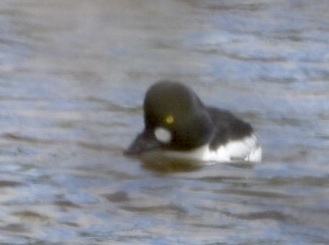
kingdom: Animalia
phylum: Chordata
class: Aves
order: Anseriformes
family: Anatidae
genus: Bucephala
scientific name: Bucephala clangula
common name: Common goldeneye
